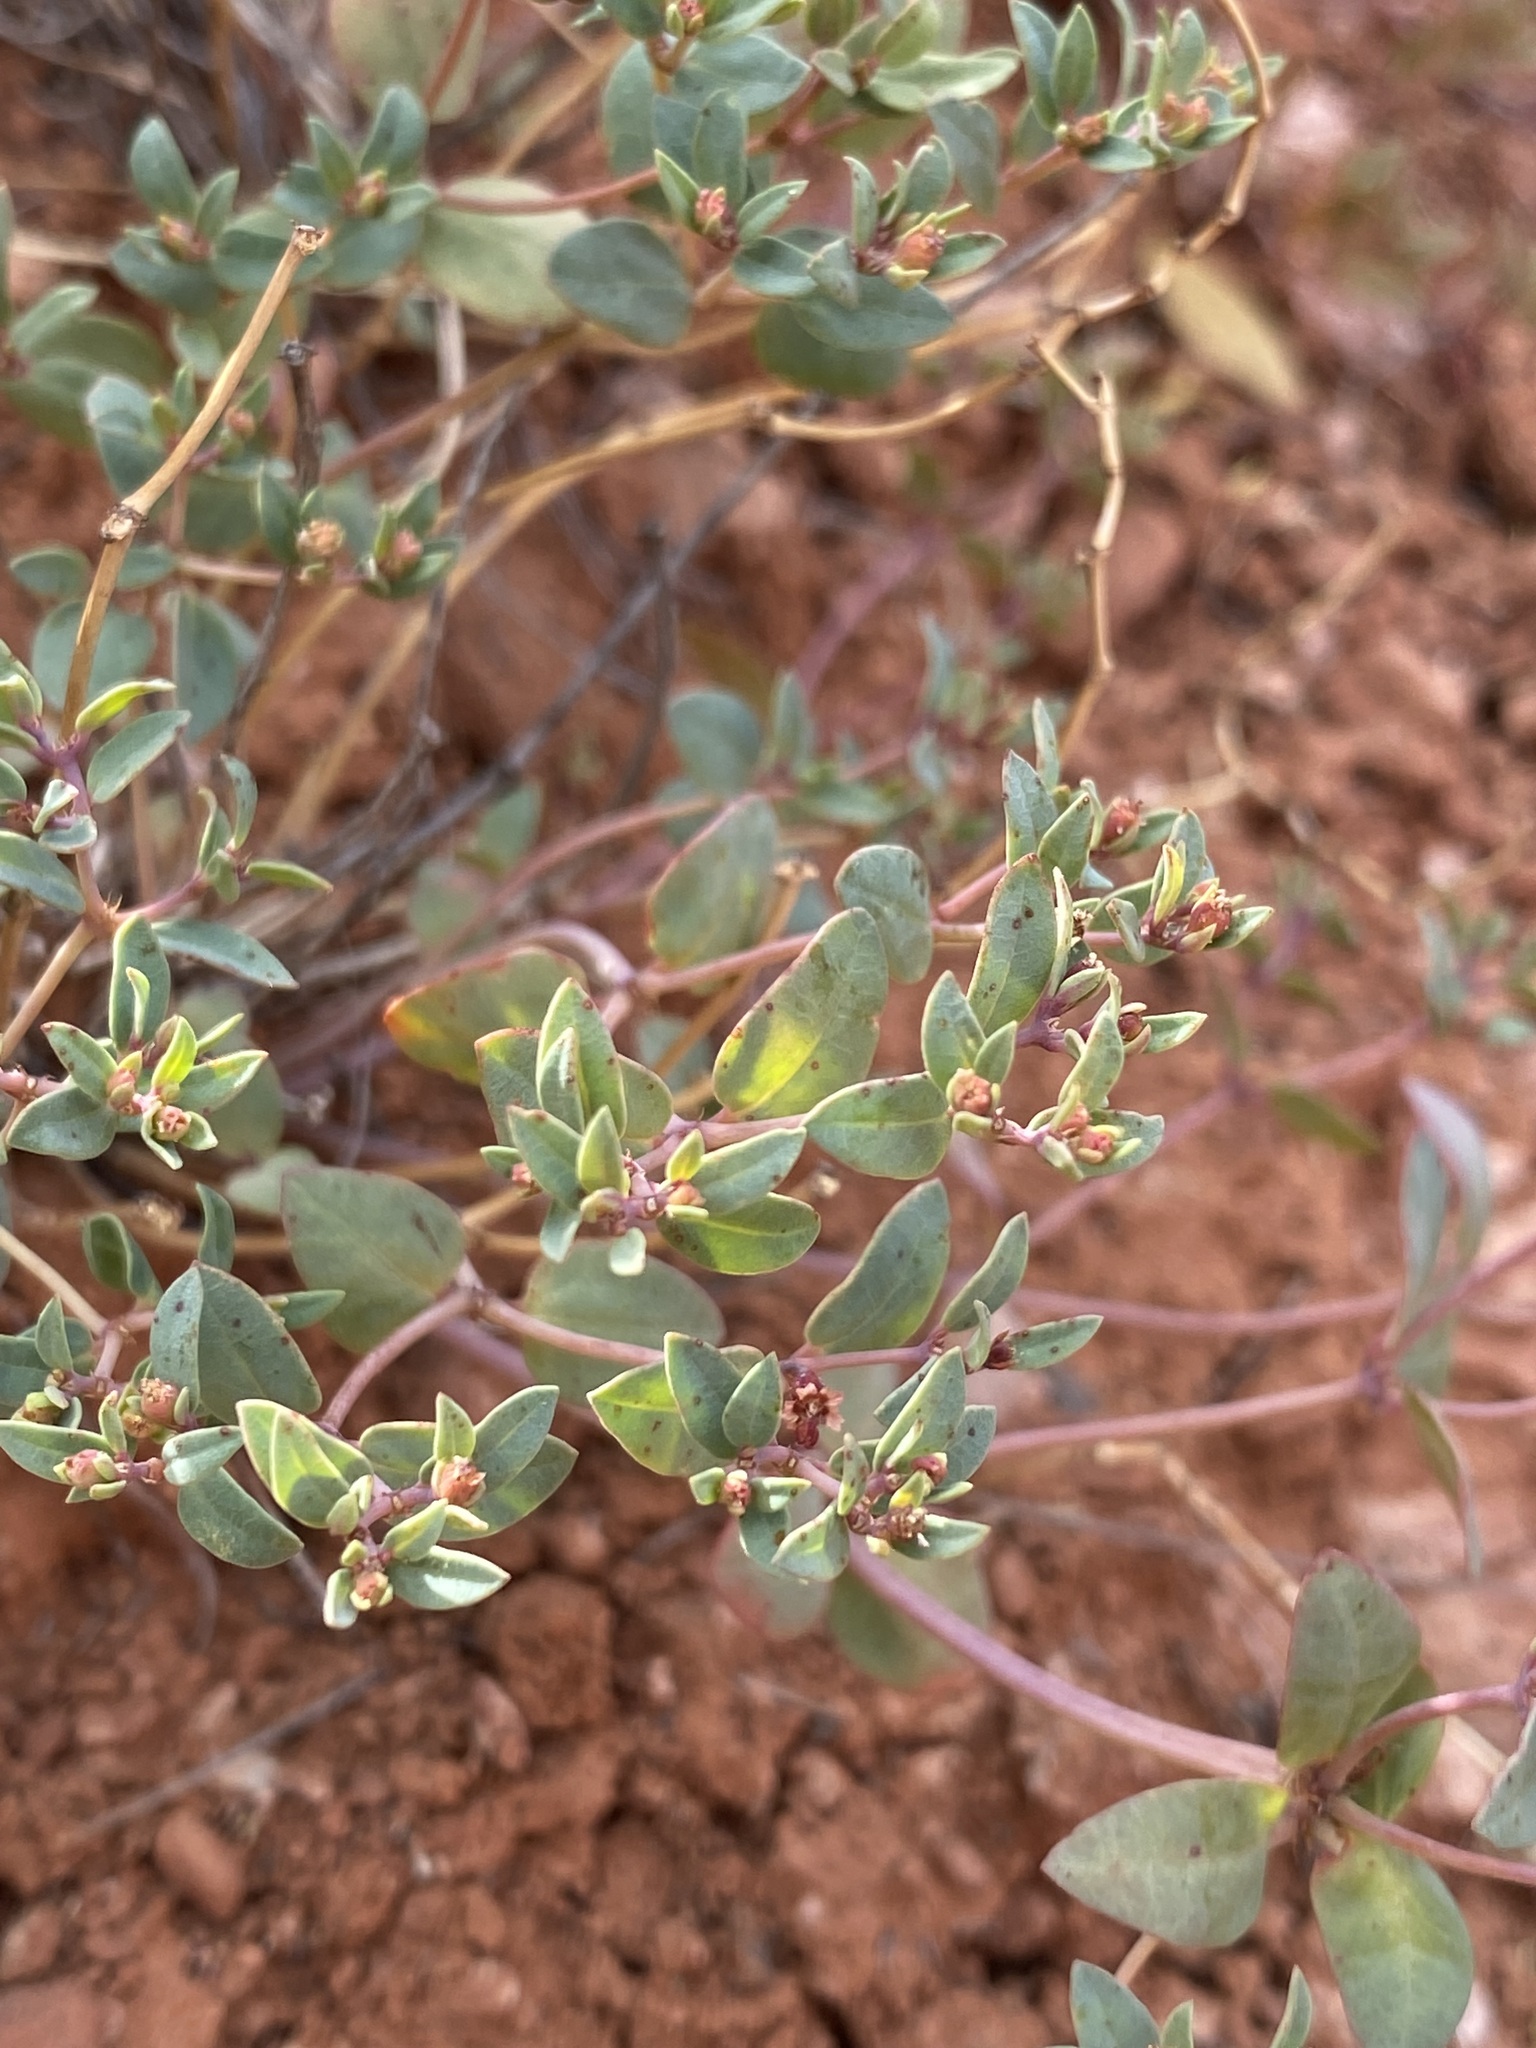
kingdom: Plantae
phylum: Tracheophyta
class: Magnoliopsida
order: Malpighiales
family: Euphorbiaceae
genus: Euphorbia
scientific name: Euphorbia fendleri
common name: Fendler's euphorbia
